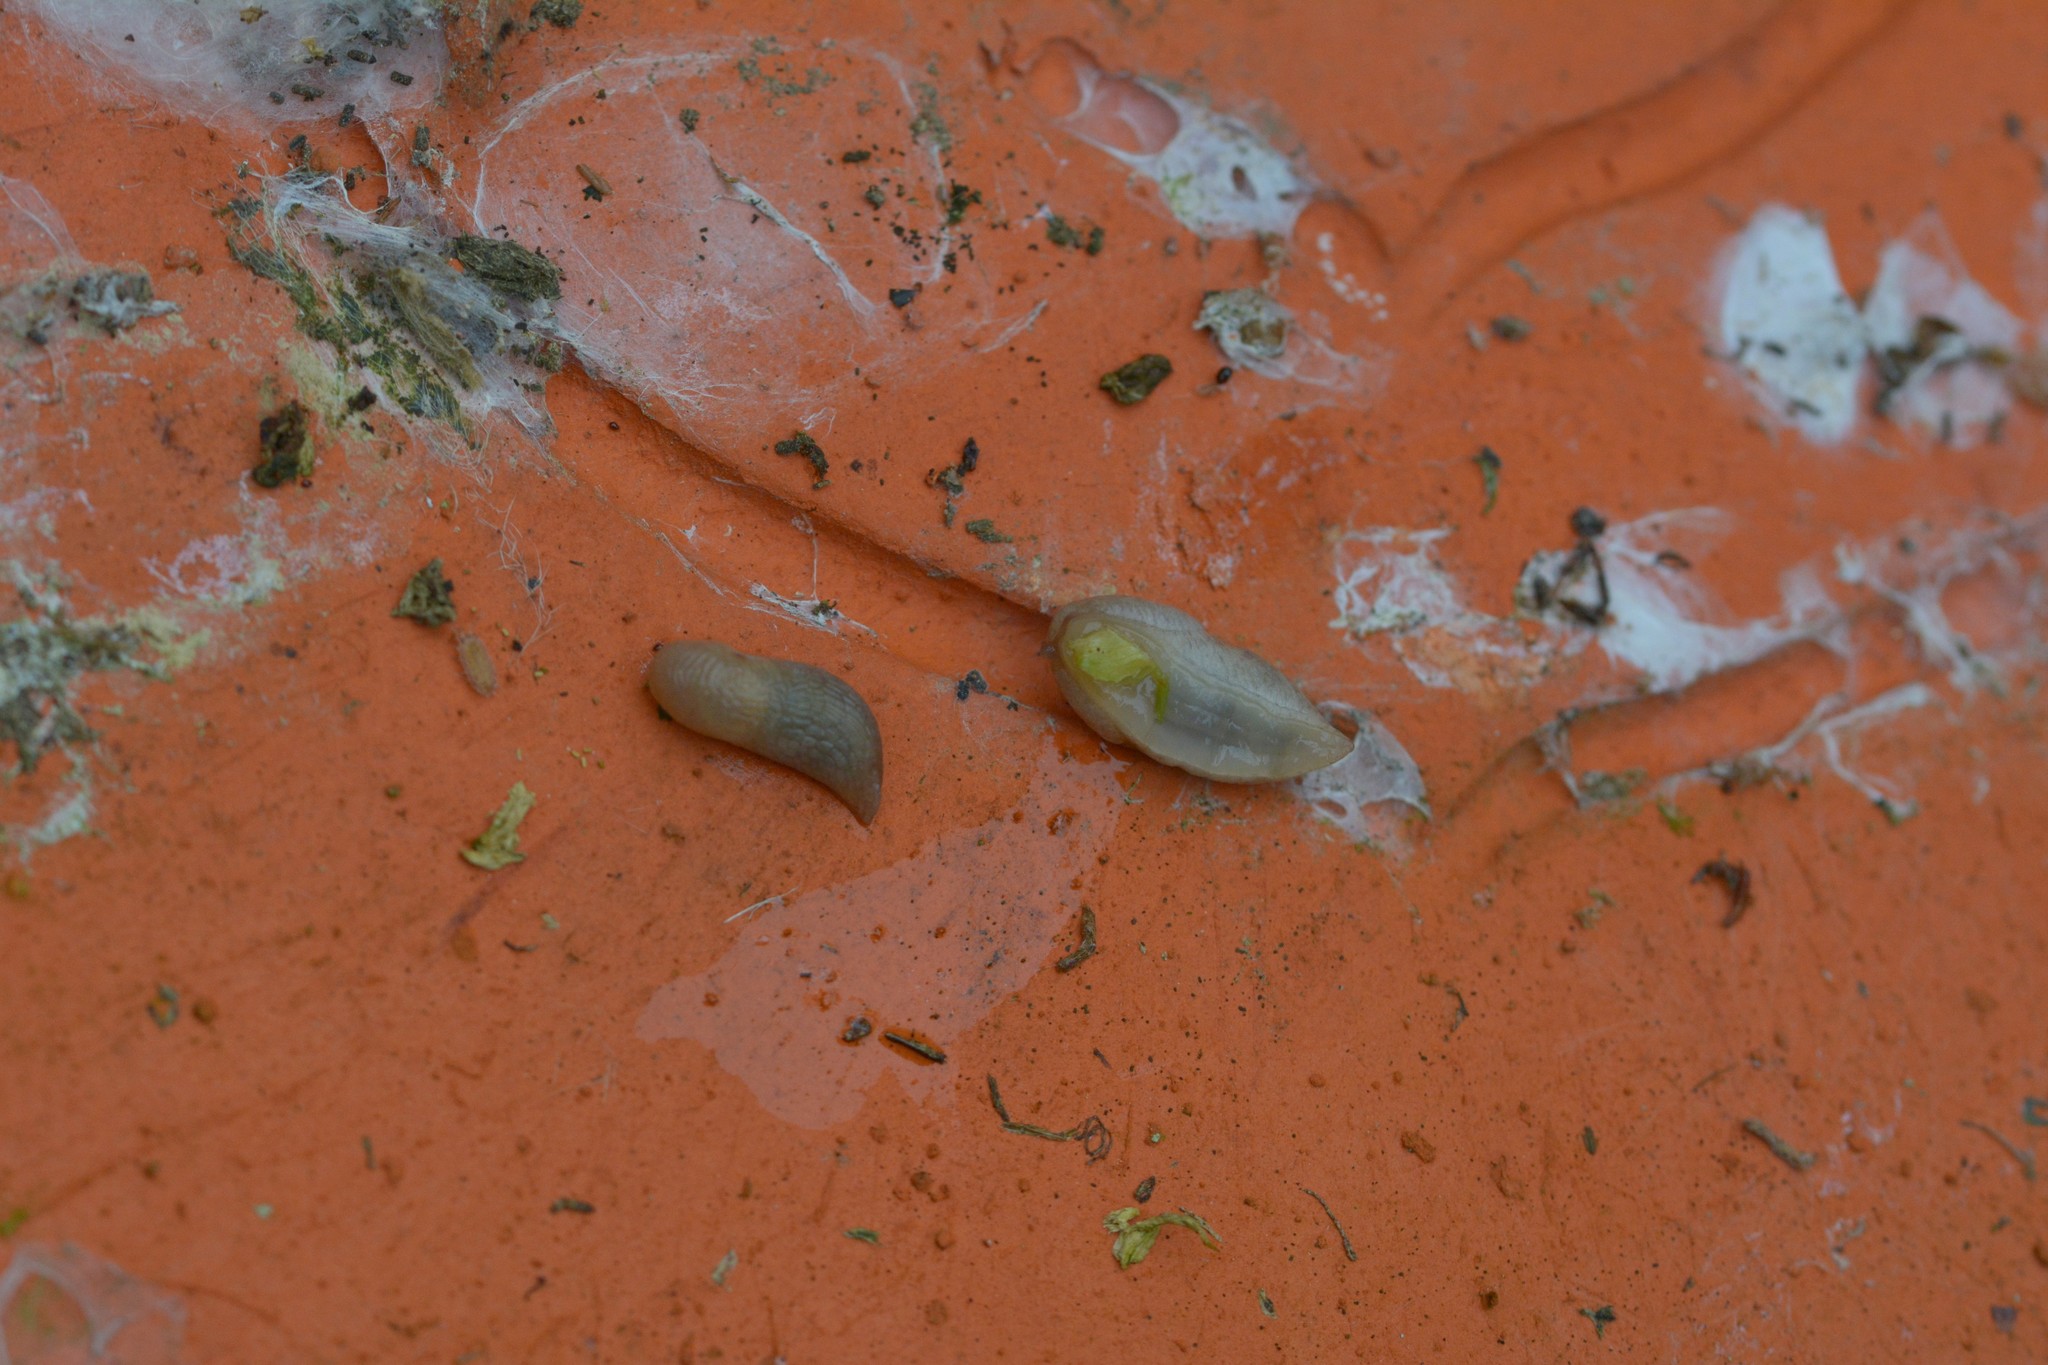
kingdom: Animalia
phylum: Mollusca
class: Gastropoda
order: Stylommatophora
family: Agriolimacidae
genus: Deroceras
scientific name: Deroceras reticulatum
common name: Gray field slug
